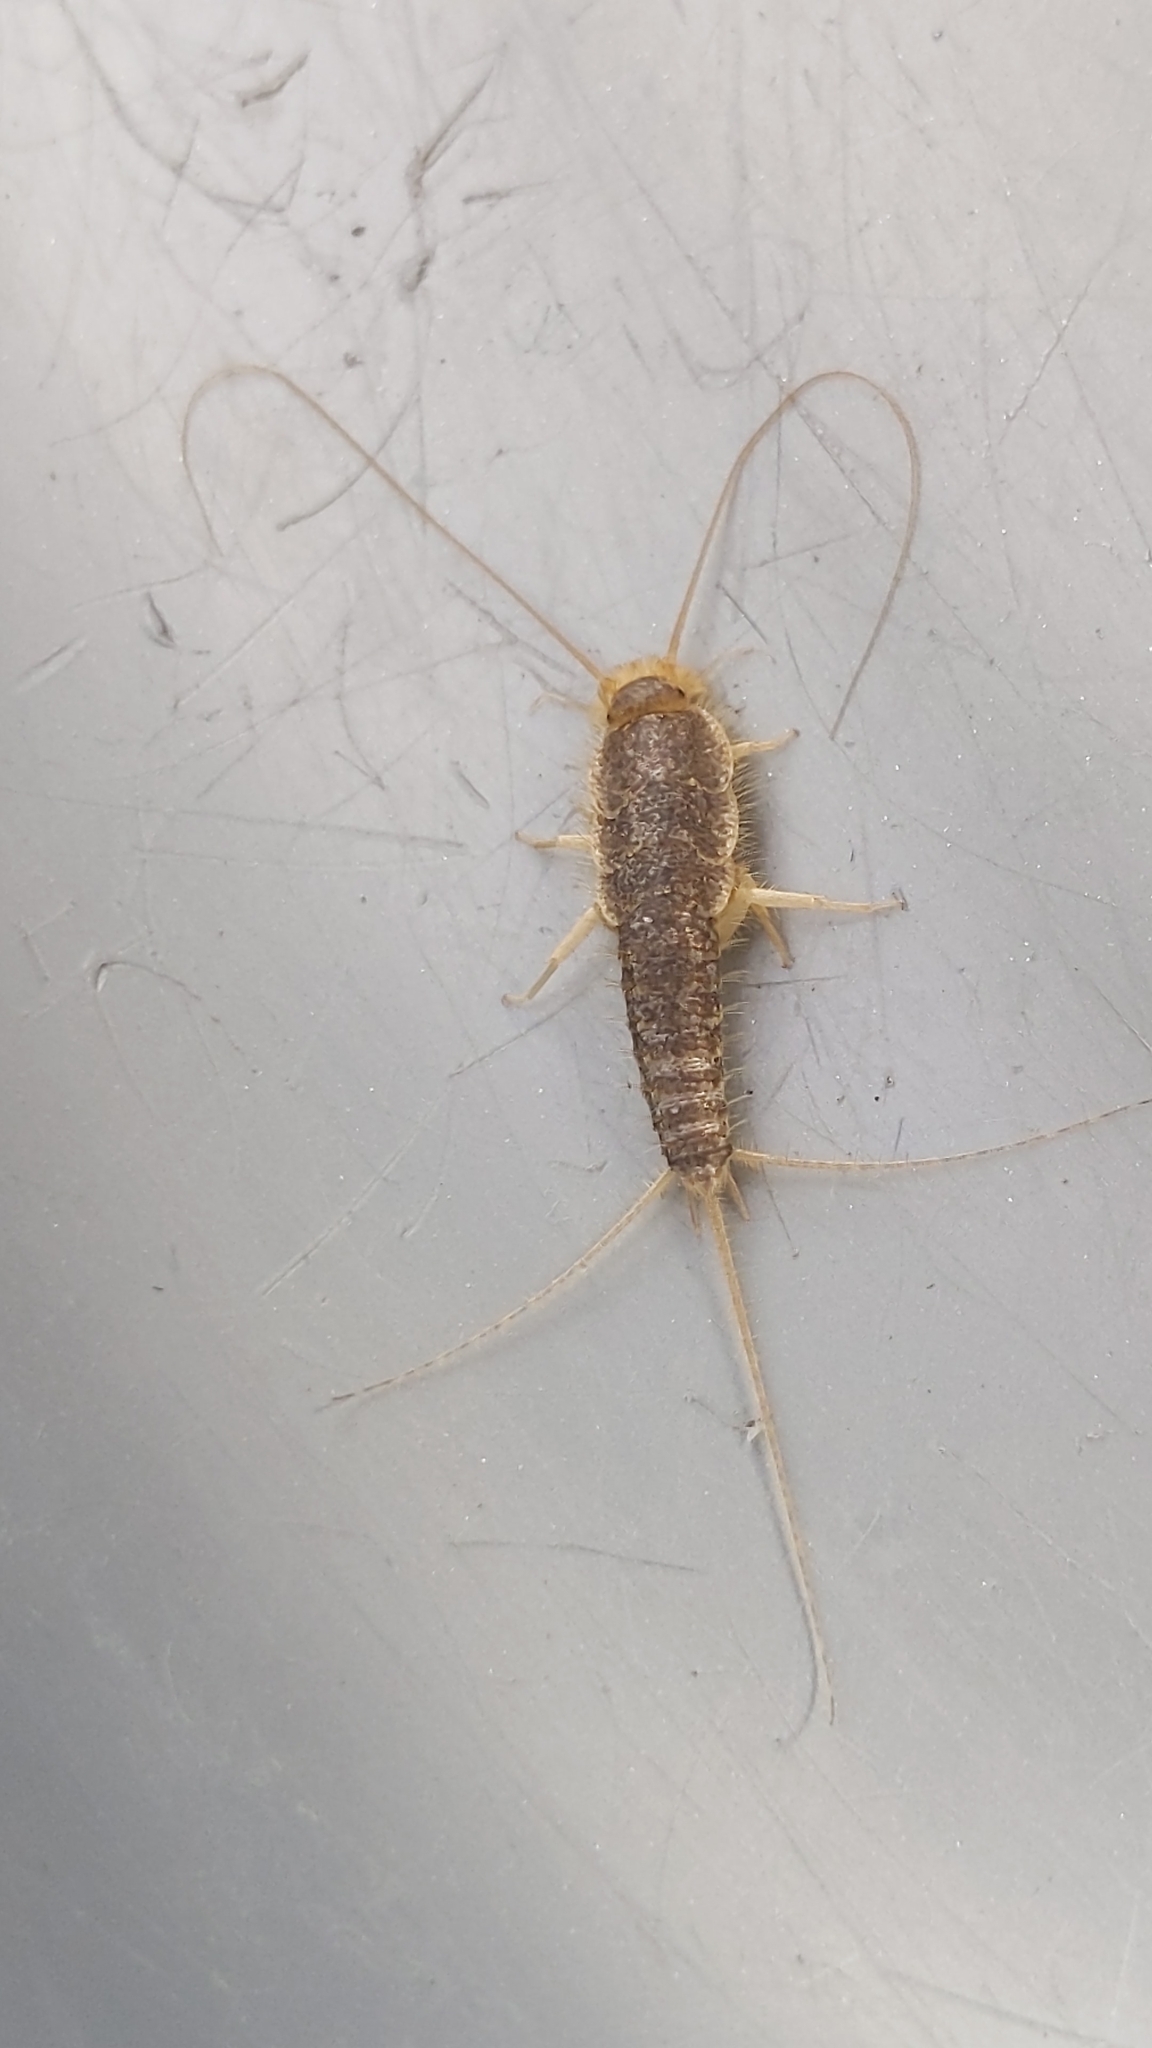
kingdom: Animalia
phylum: Arthropoda
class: Insecta
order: Zygentoma
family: Lepismatidae
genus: Ctenolepisma
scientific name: Ctenolepisma longicaudatum
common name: Silverfish
